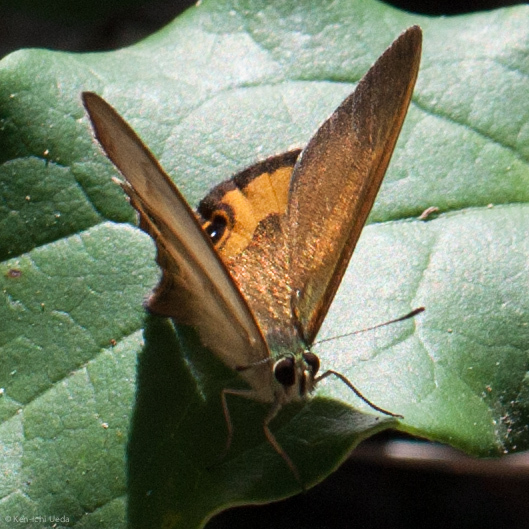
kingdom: Animalia
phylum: Arthropoda
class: Insecta
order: Lepidoptera
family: Nymphalidae
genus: Hypocysta
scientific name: Hypocysta metirius
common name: Brown ringlet
